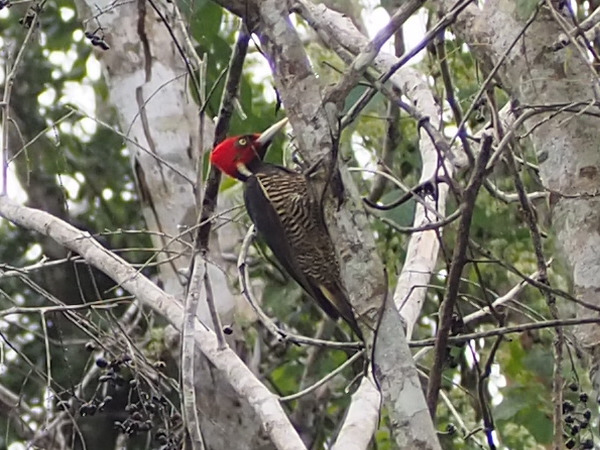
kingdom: Animalia
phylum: Chordata
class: Aves
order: Piciformes
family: Picidae
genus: Campephilus
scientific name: Campephilus guatemalensis
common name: Pale-billed woodpecker
